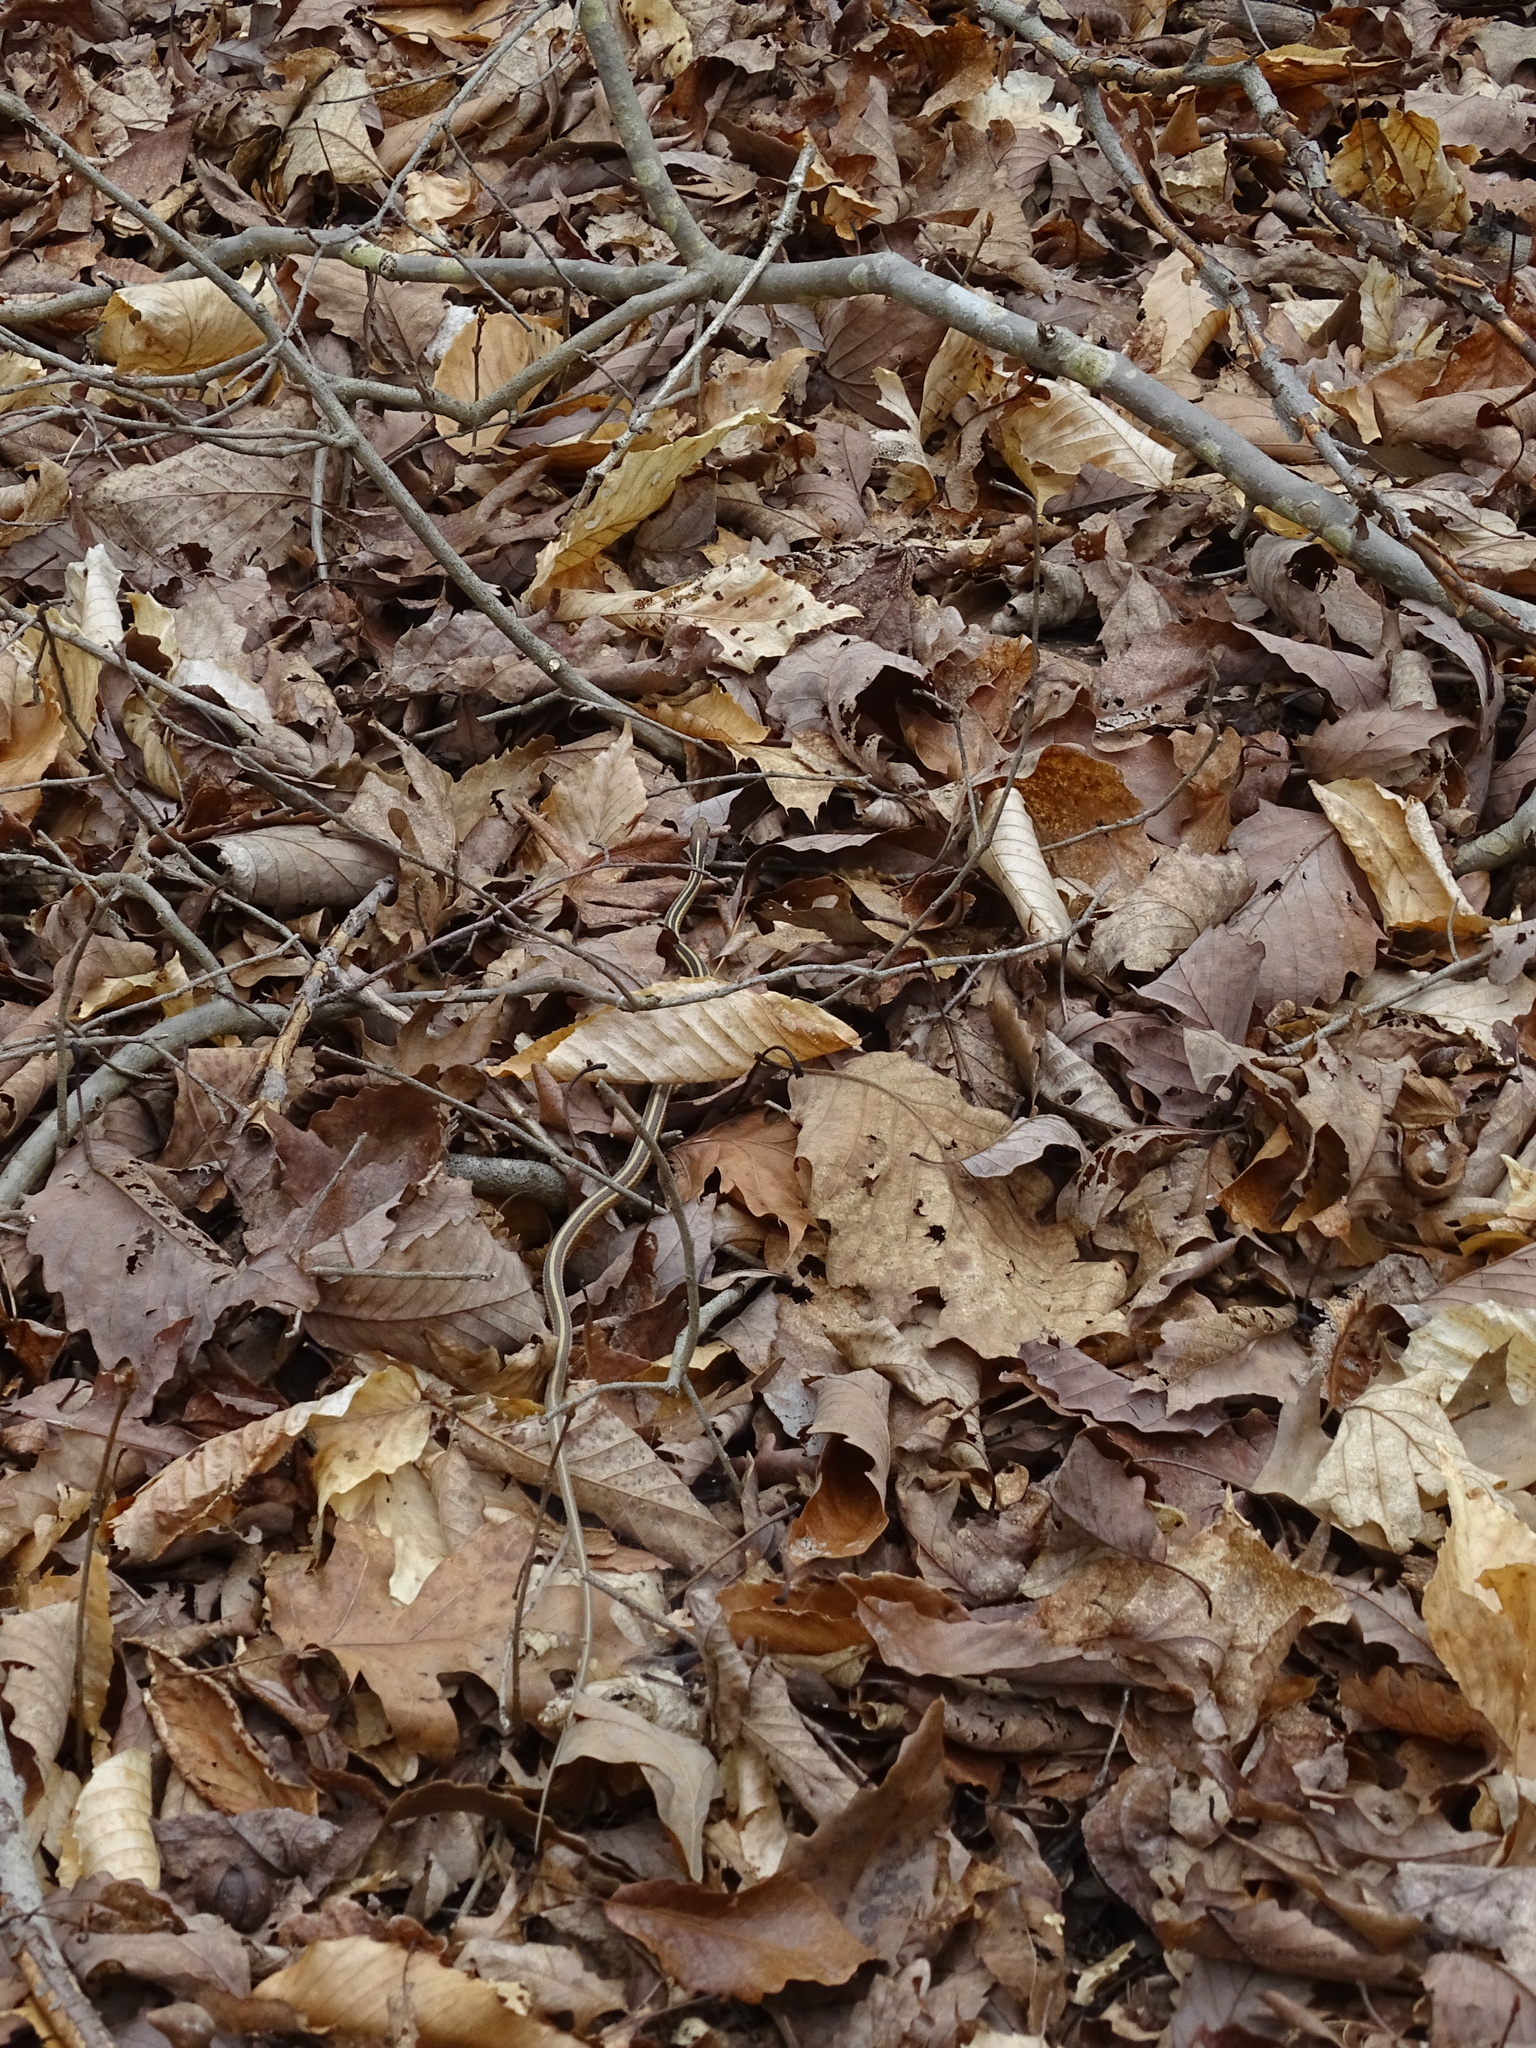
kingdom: Animalia
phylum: Chordata
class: Squamata
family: Colubridae
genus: Thamnophis
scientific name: Thamnophis saurita
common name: Eastern ribbonsnake
